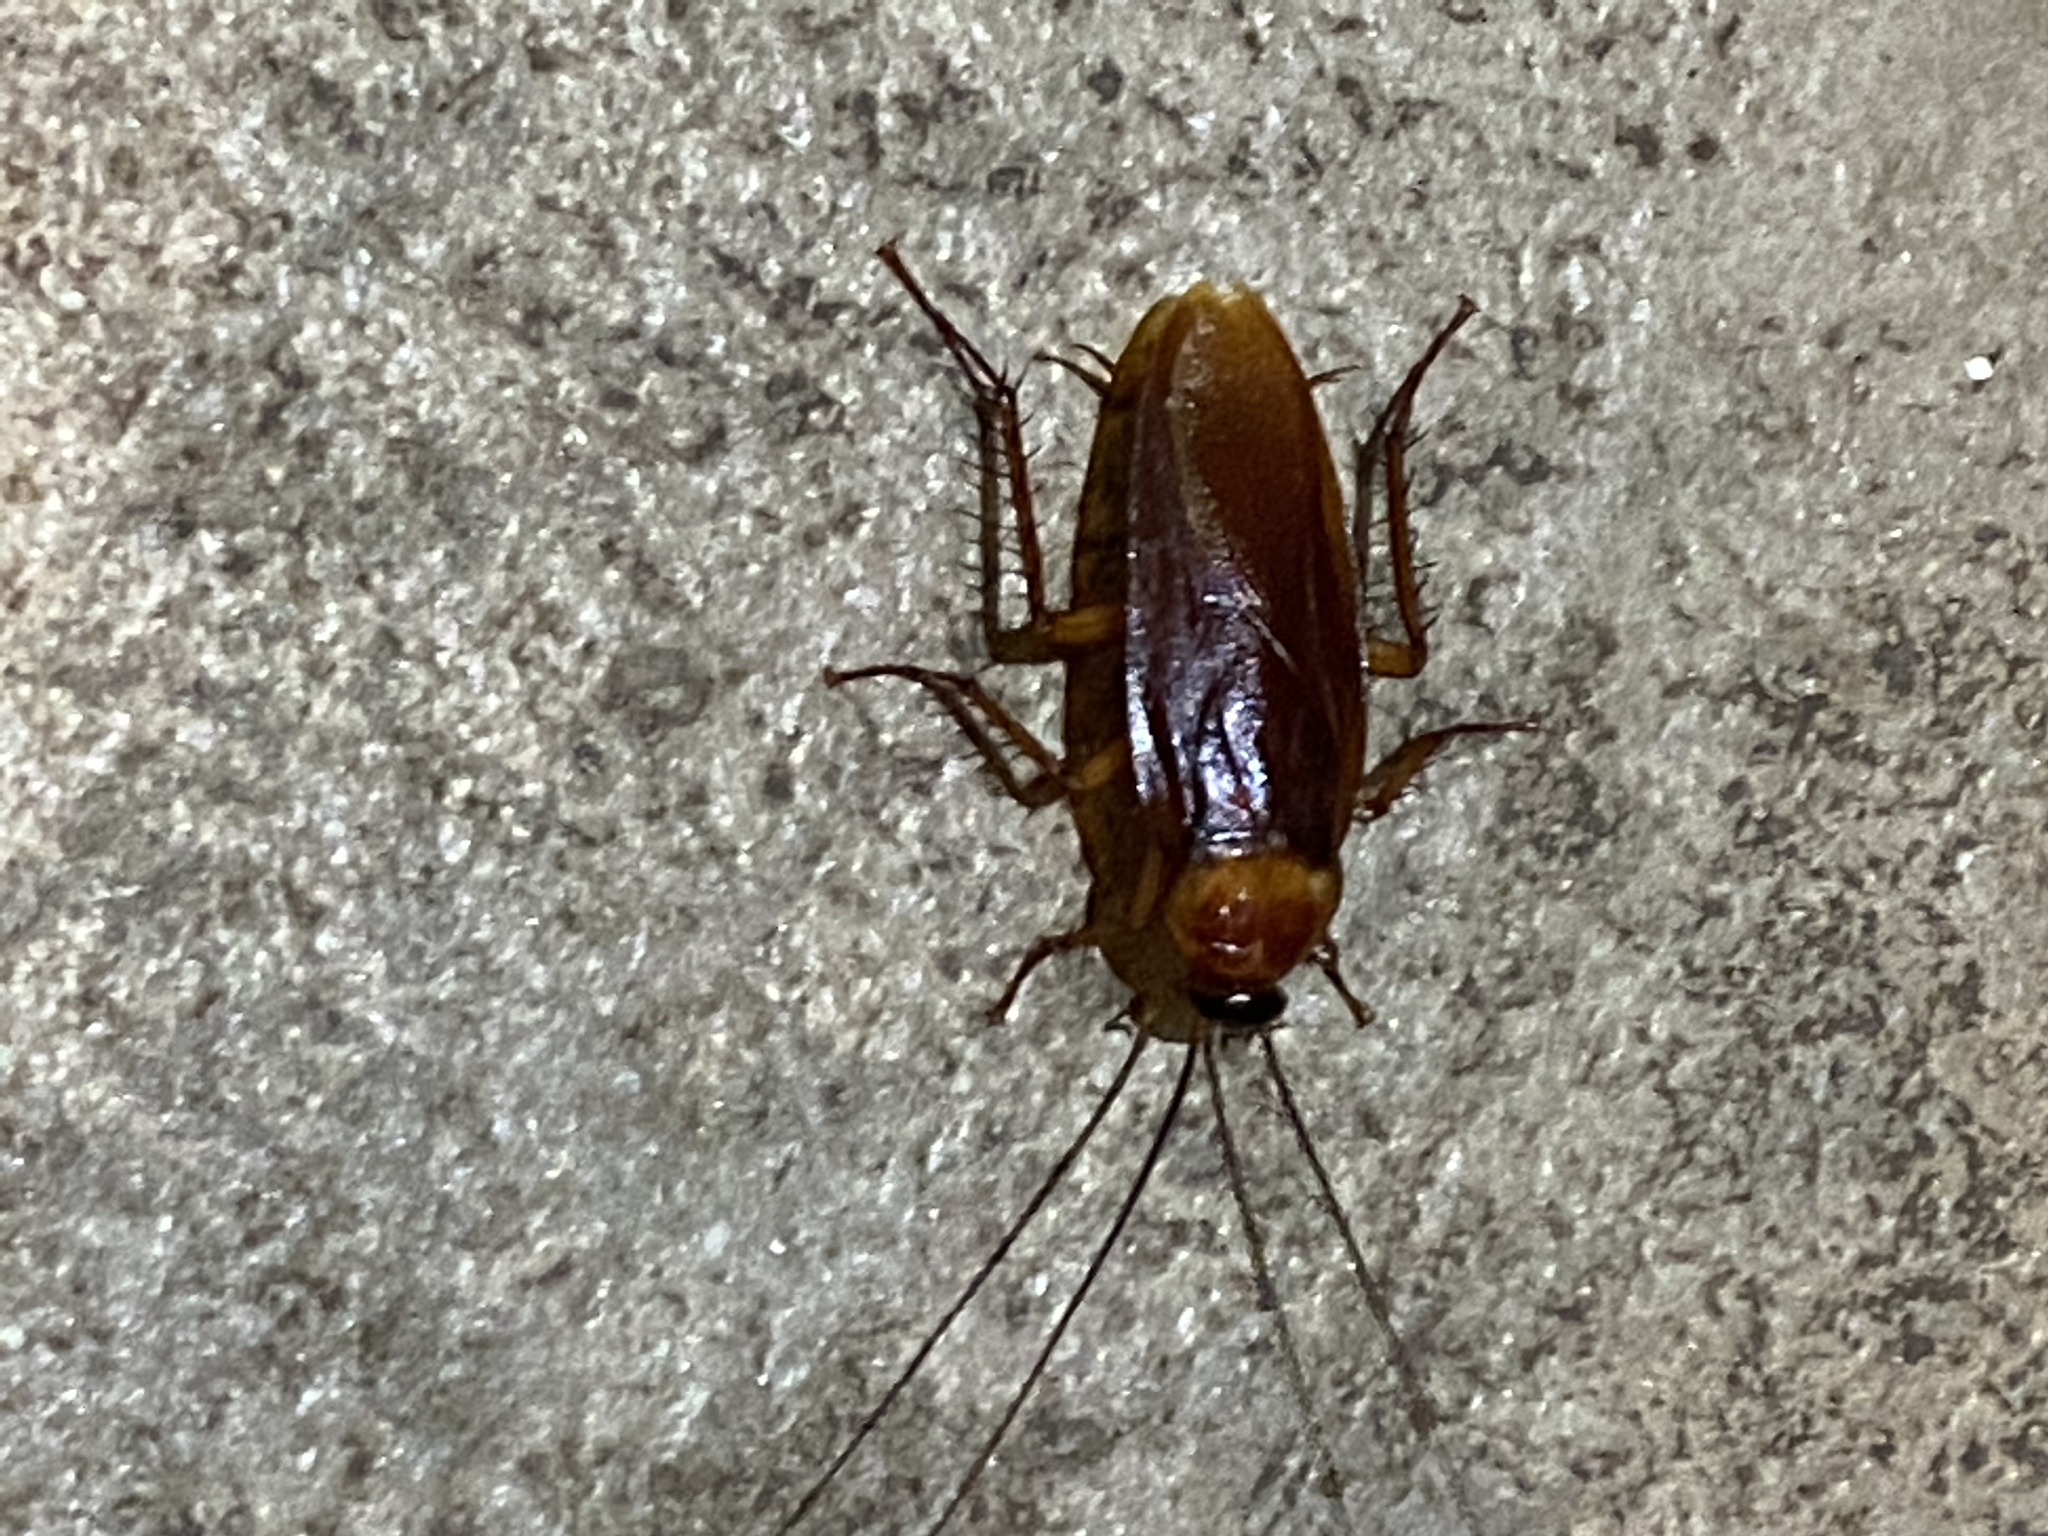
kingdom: Animalia
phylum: Arthropoda
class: Insecta
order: Blattodea
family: Blattidae
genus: Periplaneta
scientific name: Periplaneta americana
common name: American cockroach
